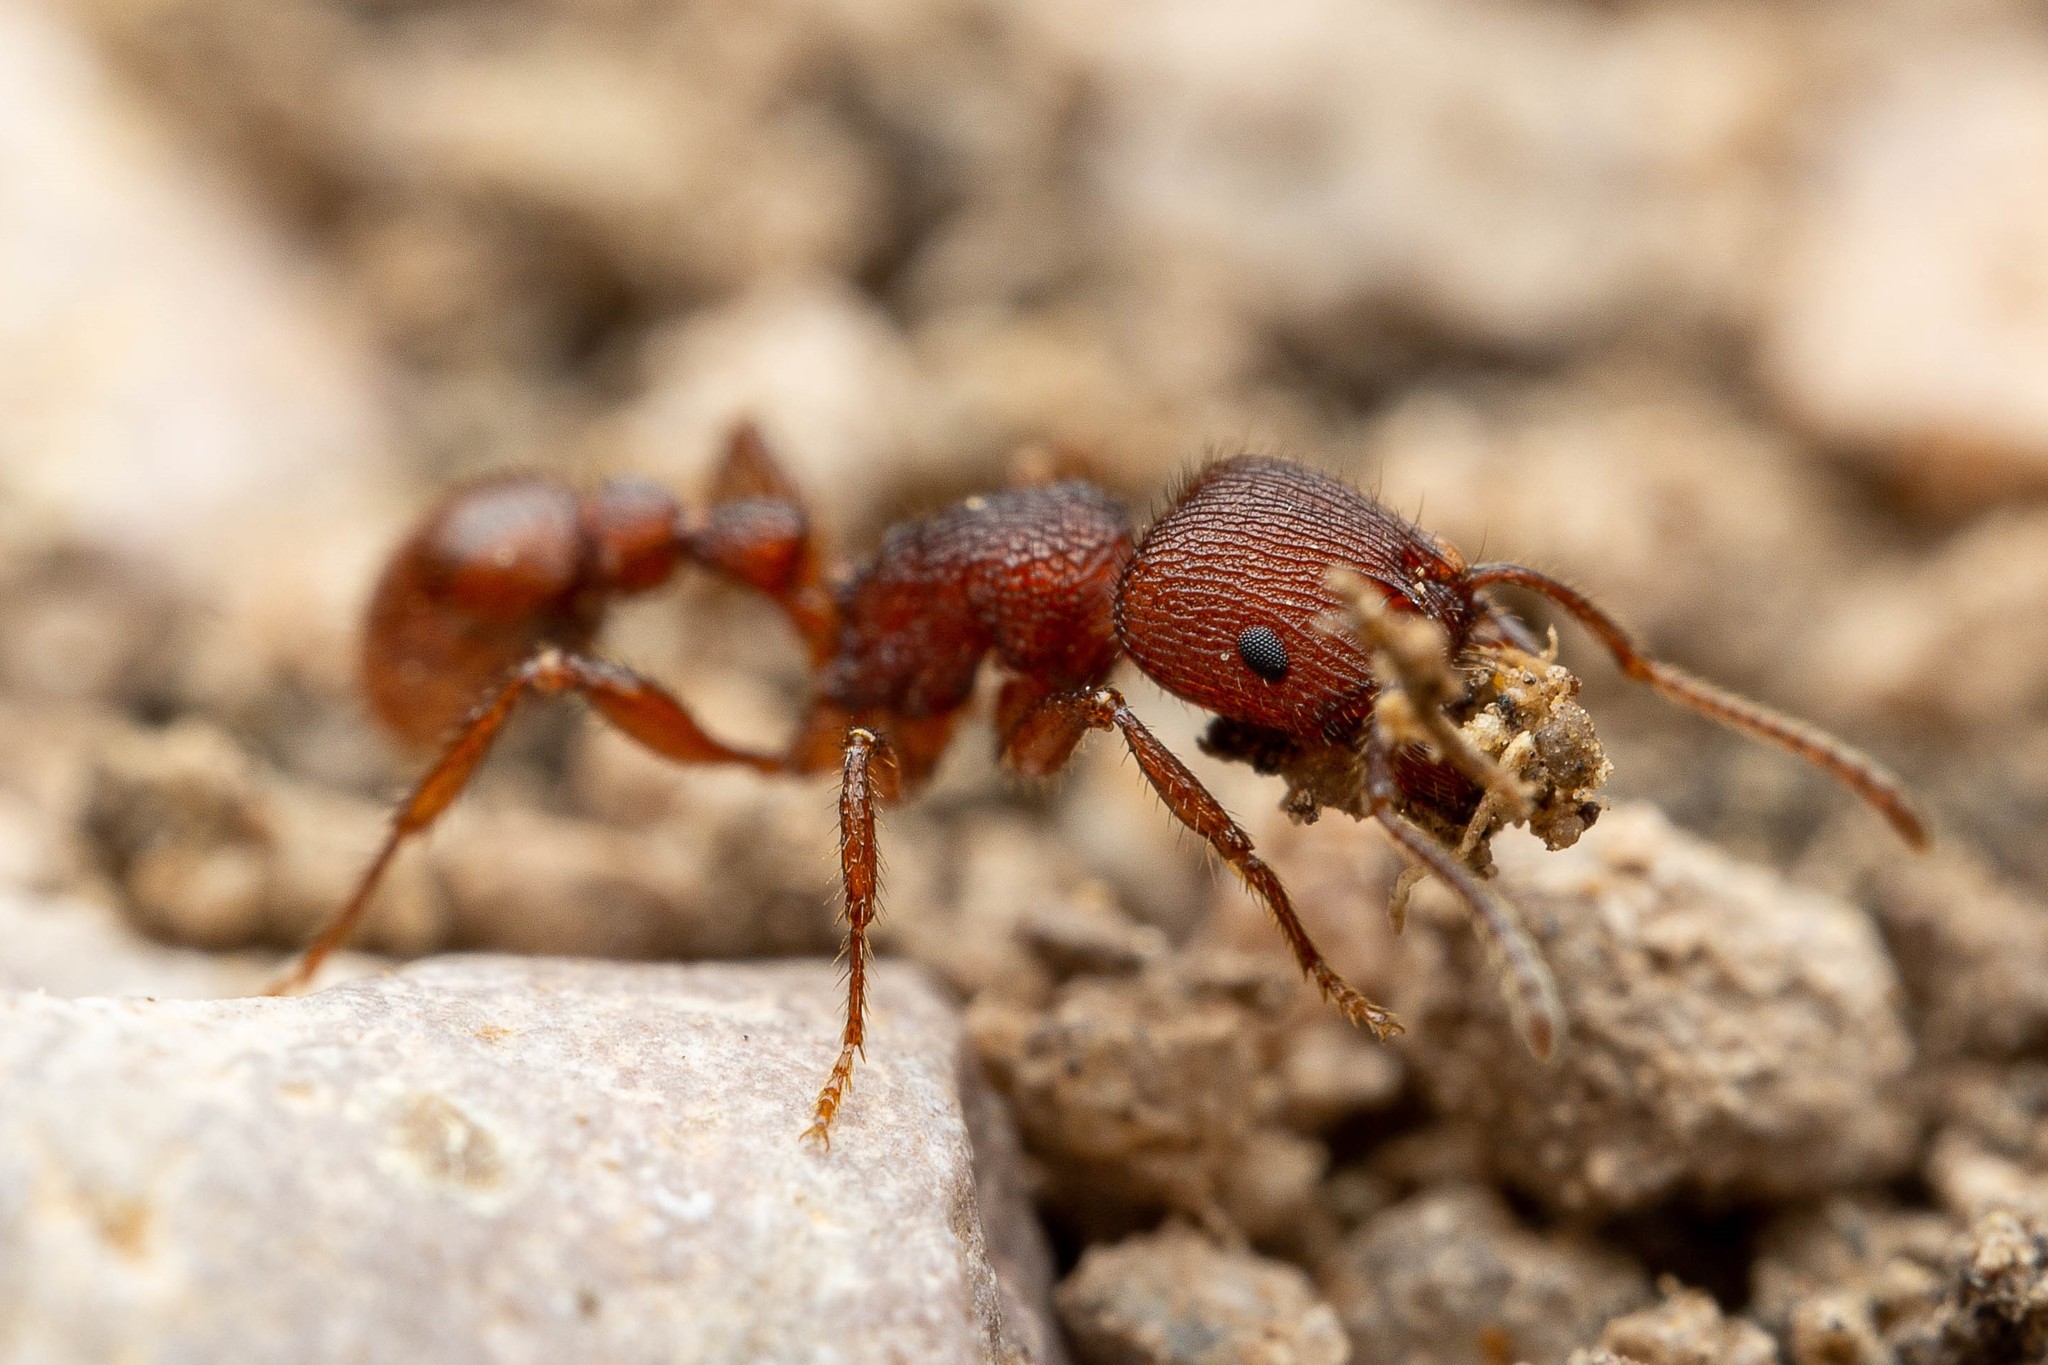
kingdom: Animalia
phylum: Arthropoda
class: Insecta
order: Hymenoptera
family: Formicidae
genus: Pogonomyrmex
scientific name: Pogonomyrmex imberbiculus
